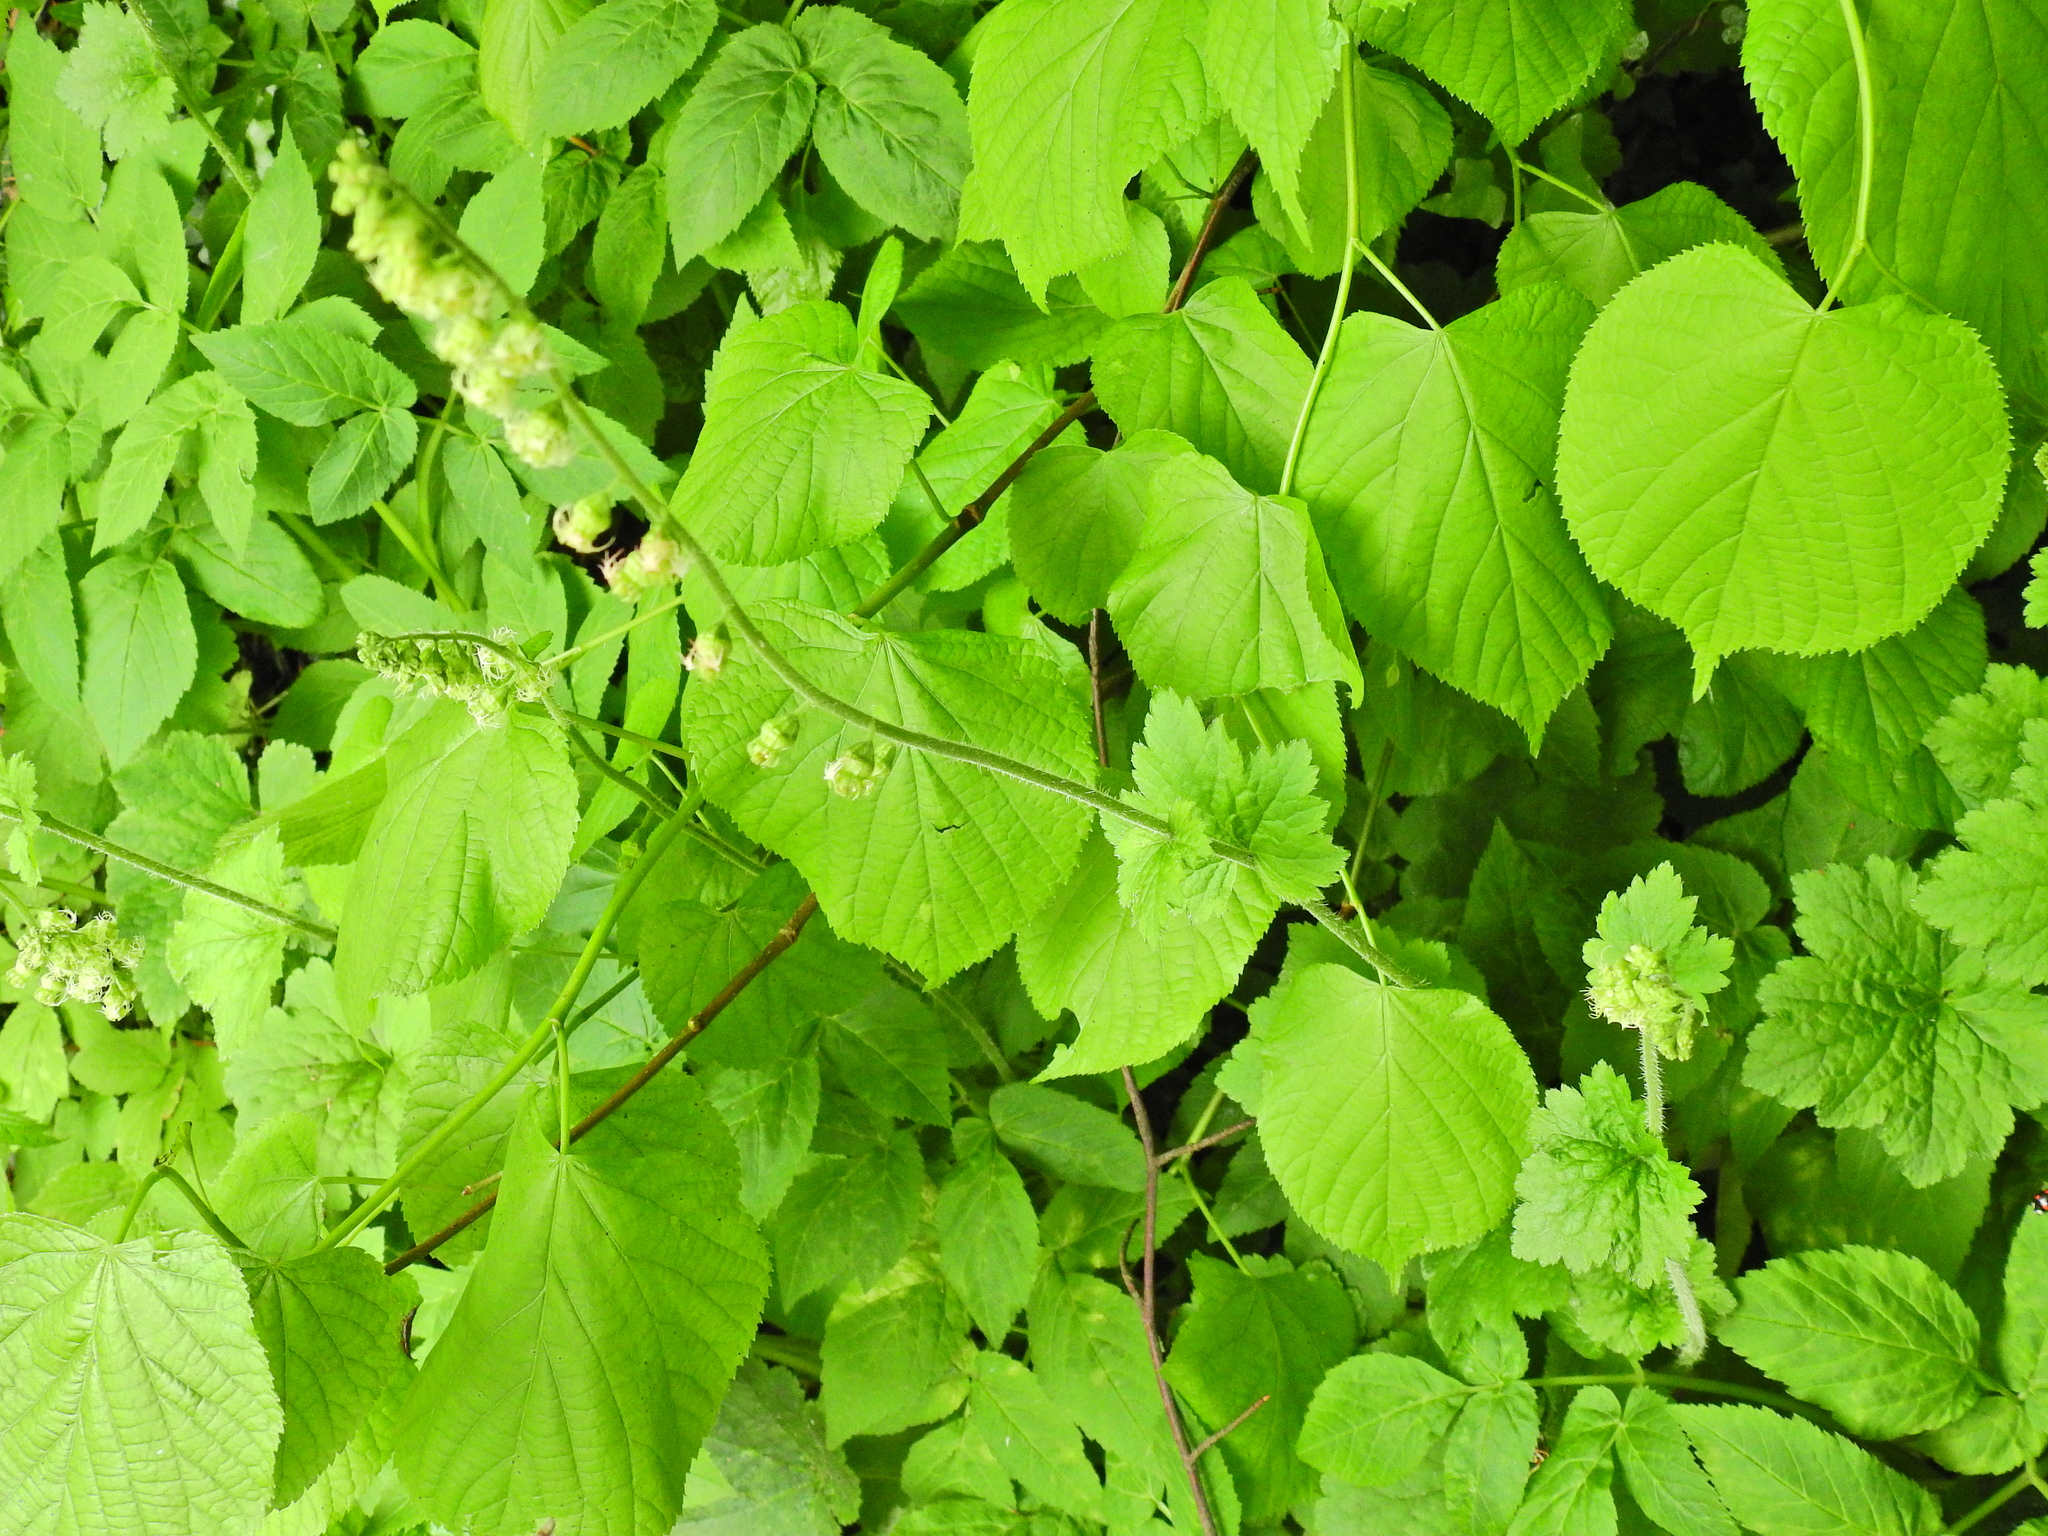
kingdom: Plantae
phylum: Tracheophyta
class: Magnoliopsida
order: Saxifragales
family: Saxifragaceae
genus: Tellima
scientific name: Tellima grandiflora
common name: Fringecups
